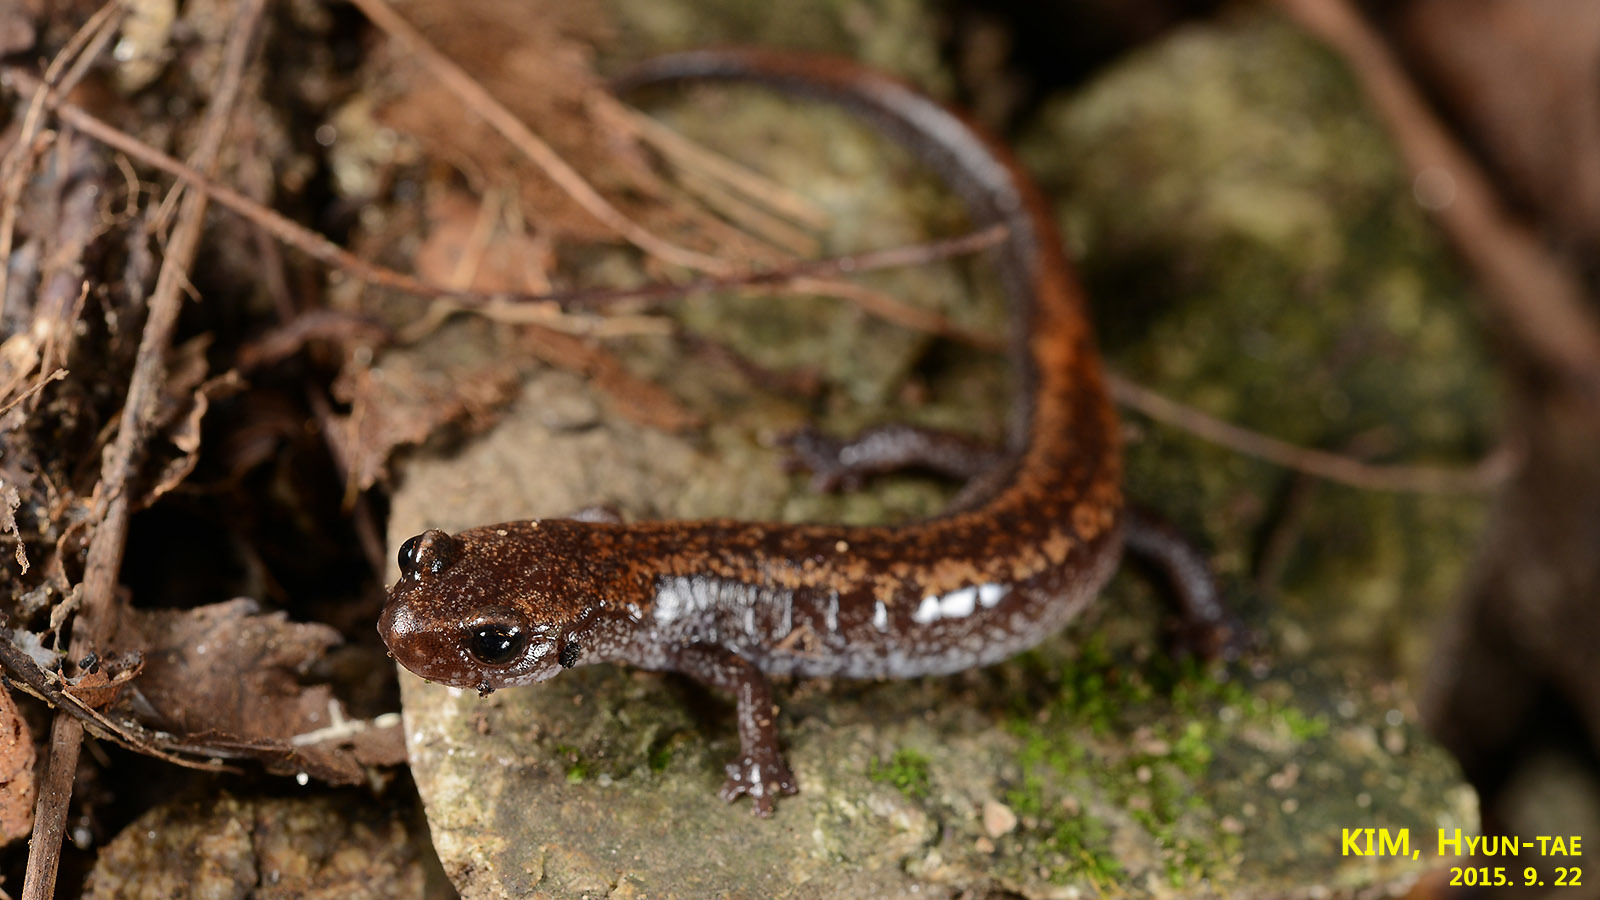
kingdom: Animalia
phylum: Chordata
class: Amphibia
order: Caudata
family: Plethodontidae
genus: Karsenia
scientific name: Karsenia koreana
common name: Korean crevice salamander
